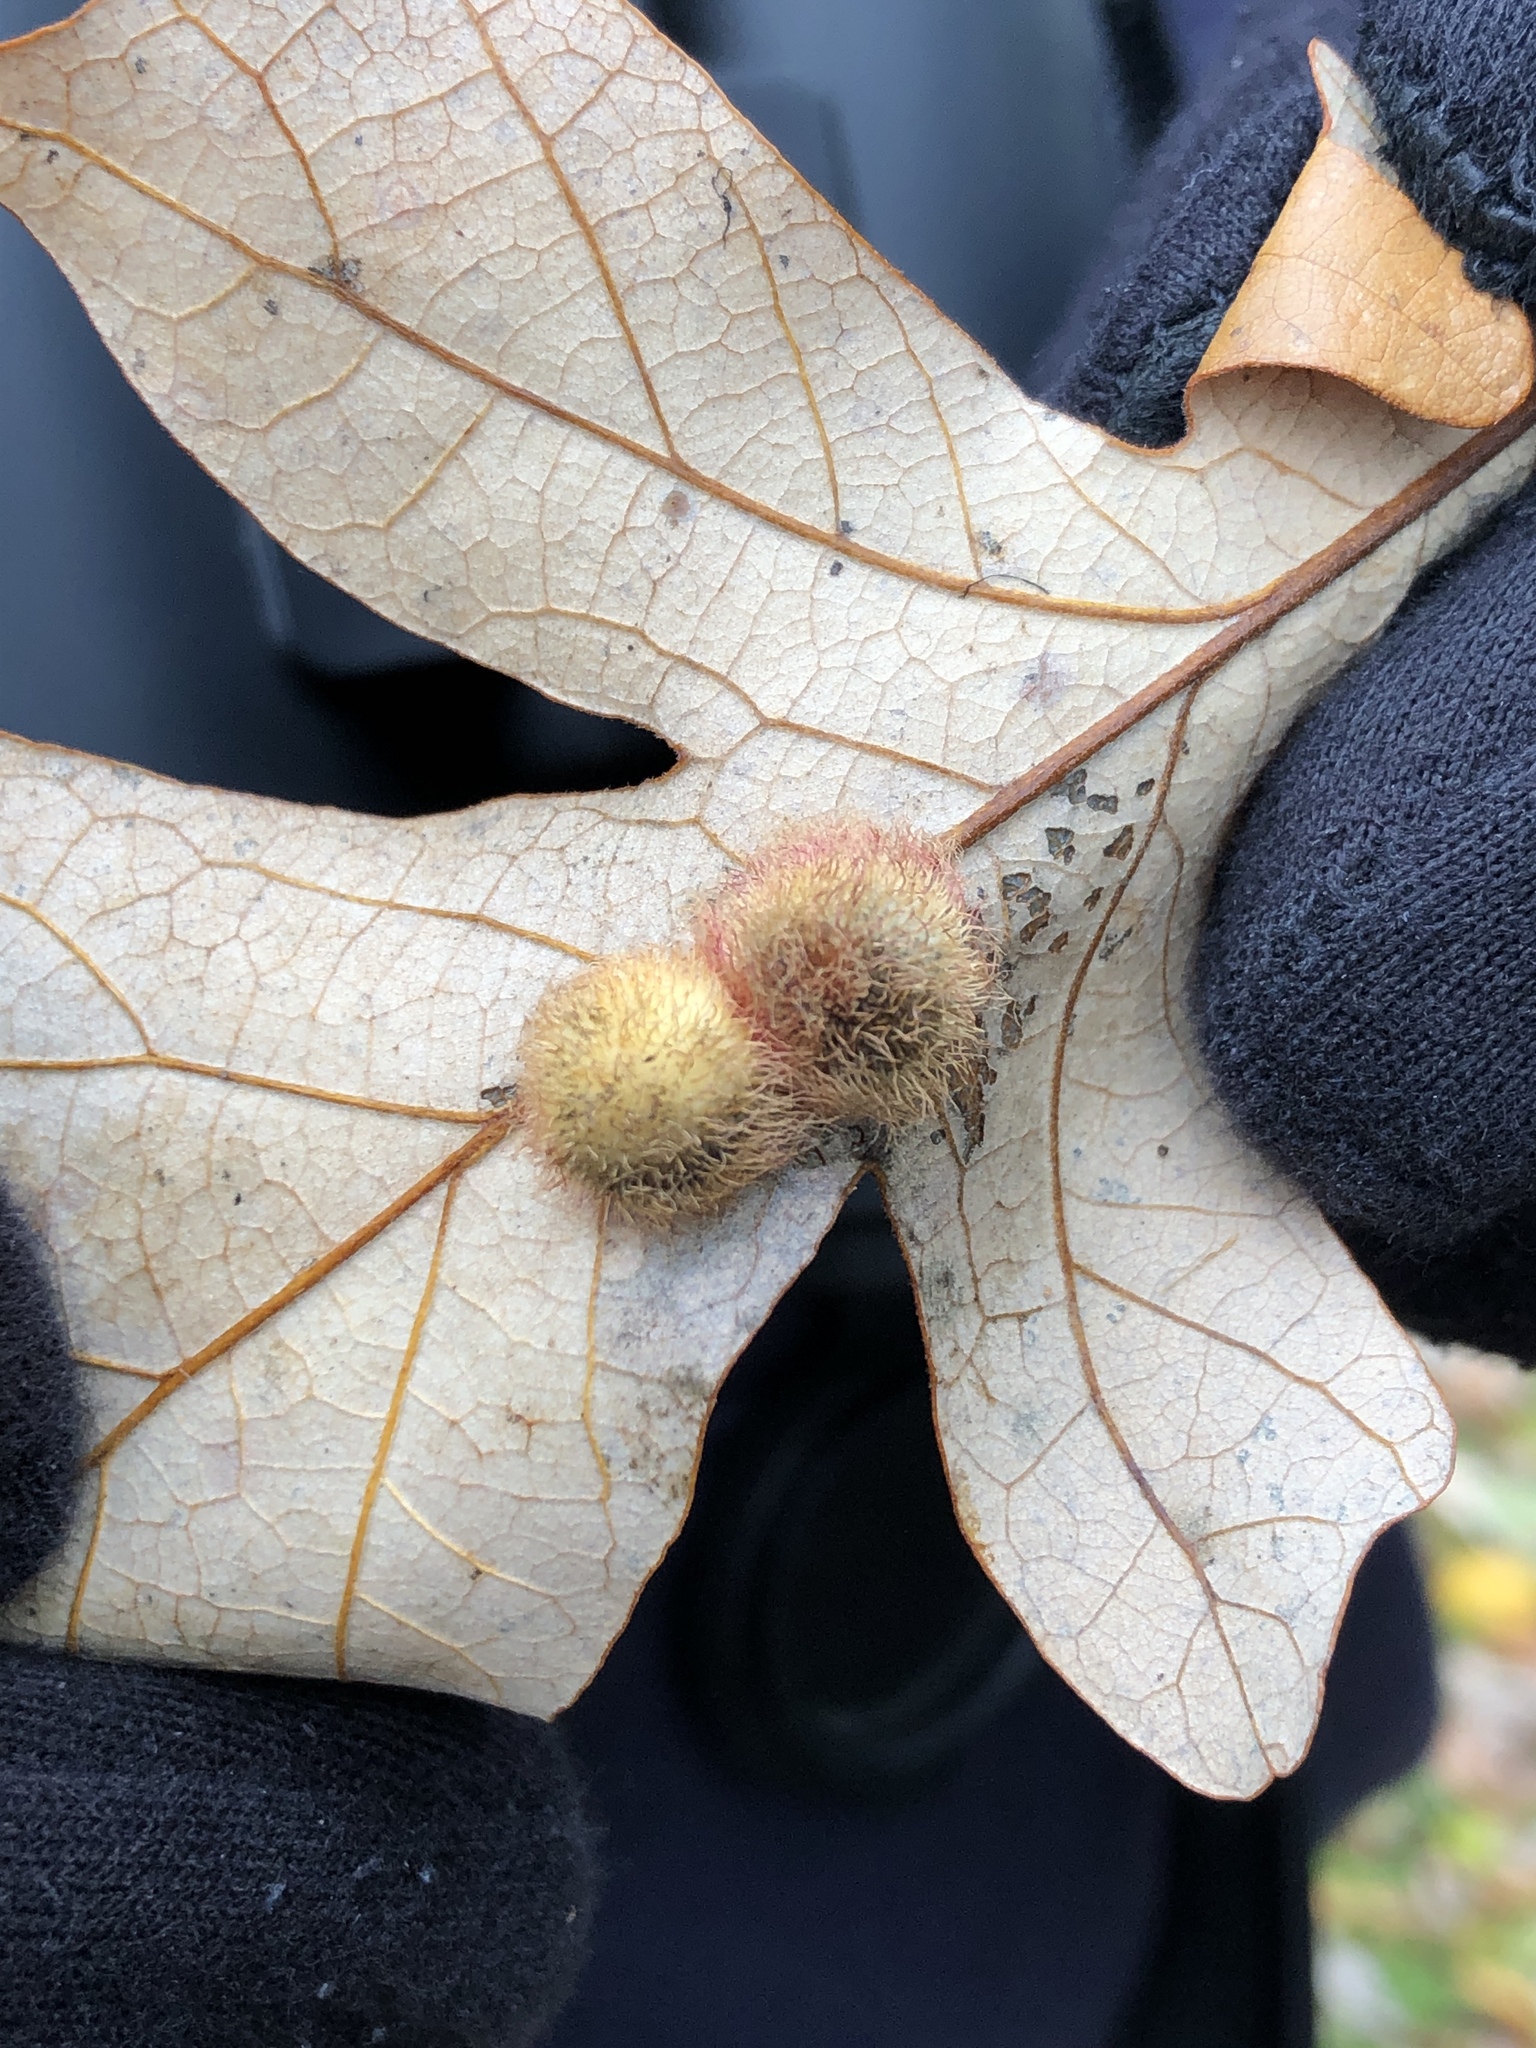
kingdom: Animalia
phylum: Arthropoda
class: Insecta
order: Hymenoptera
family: Cynipidae
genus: Acraspis
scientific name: Acraspis villosa
